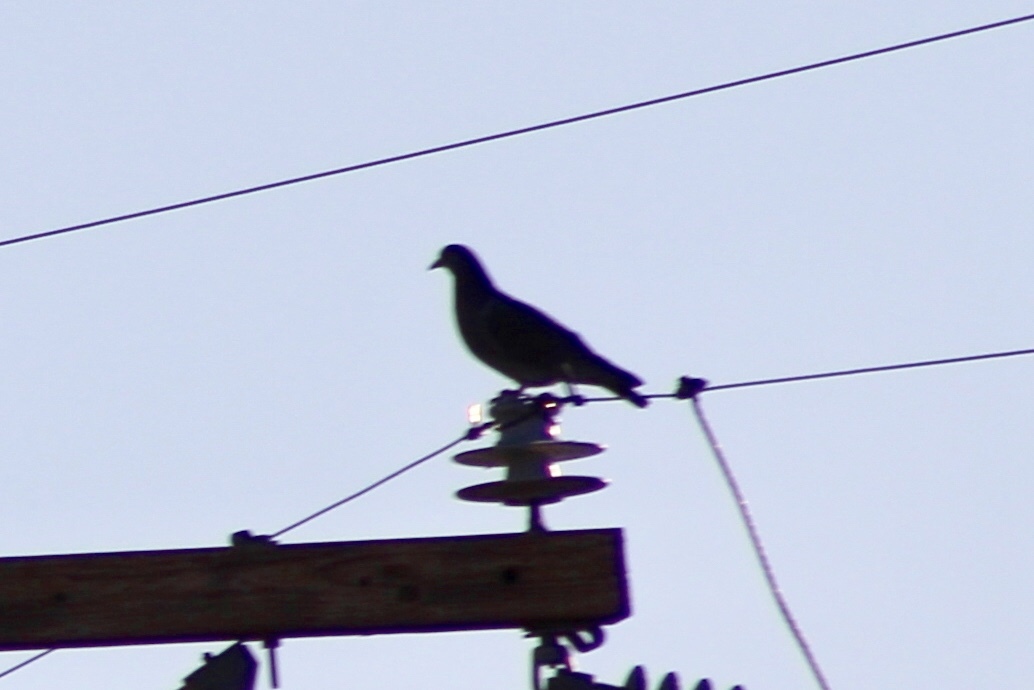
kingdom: Animalia
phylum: Chordata
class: Aves
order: Columbiformes
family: Columbidae
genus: Columba
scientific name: Columba livia
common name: Rock pigeon
